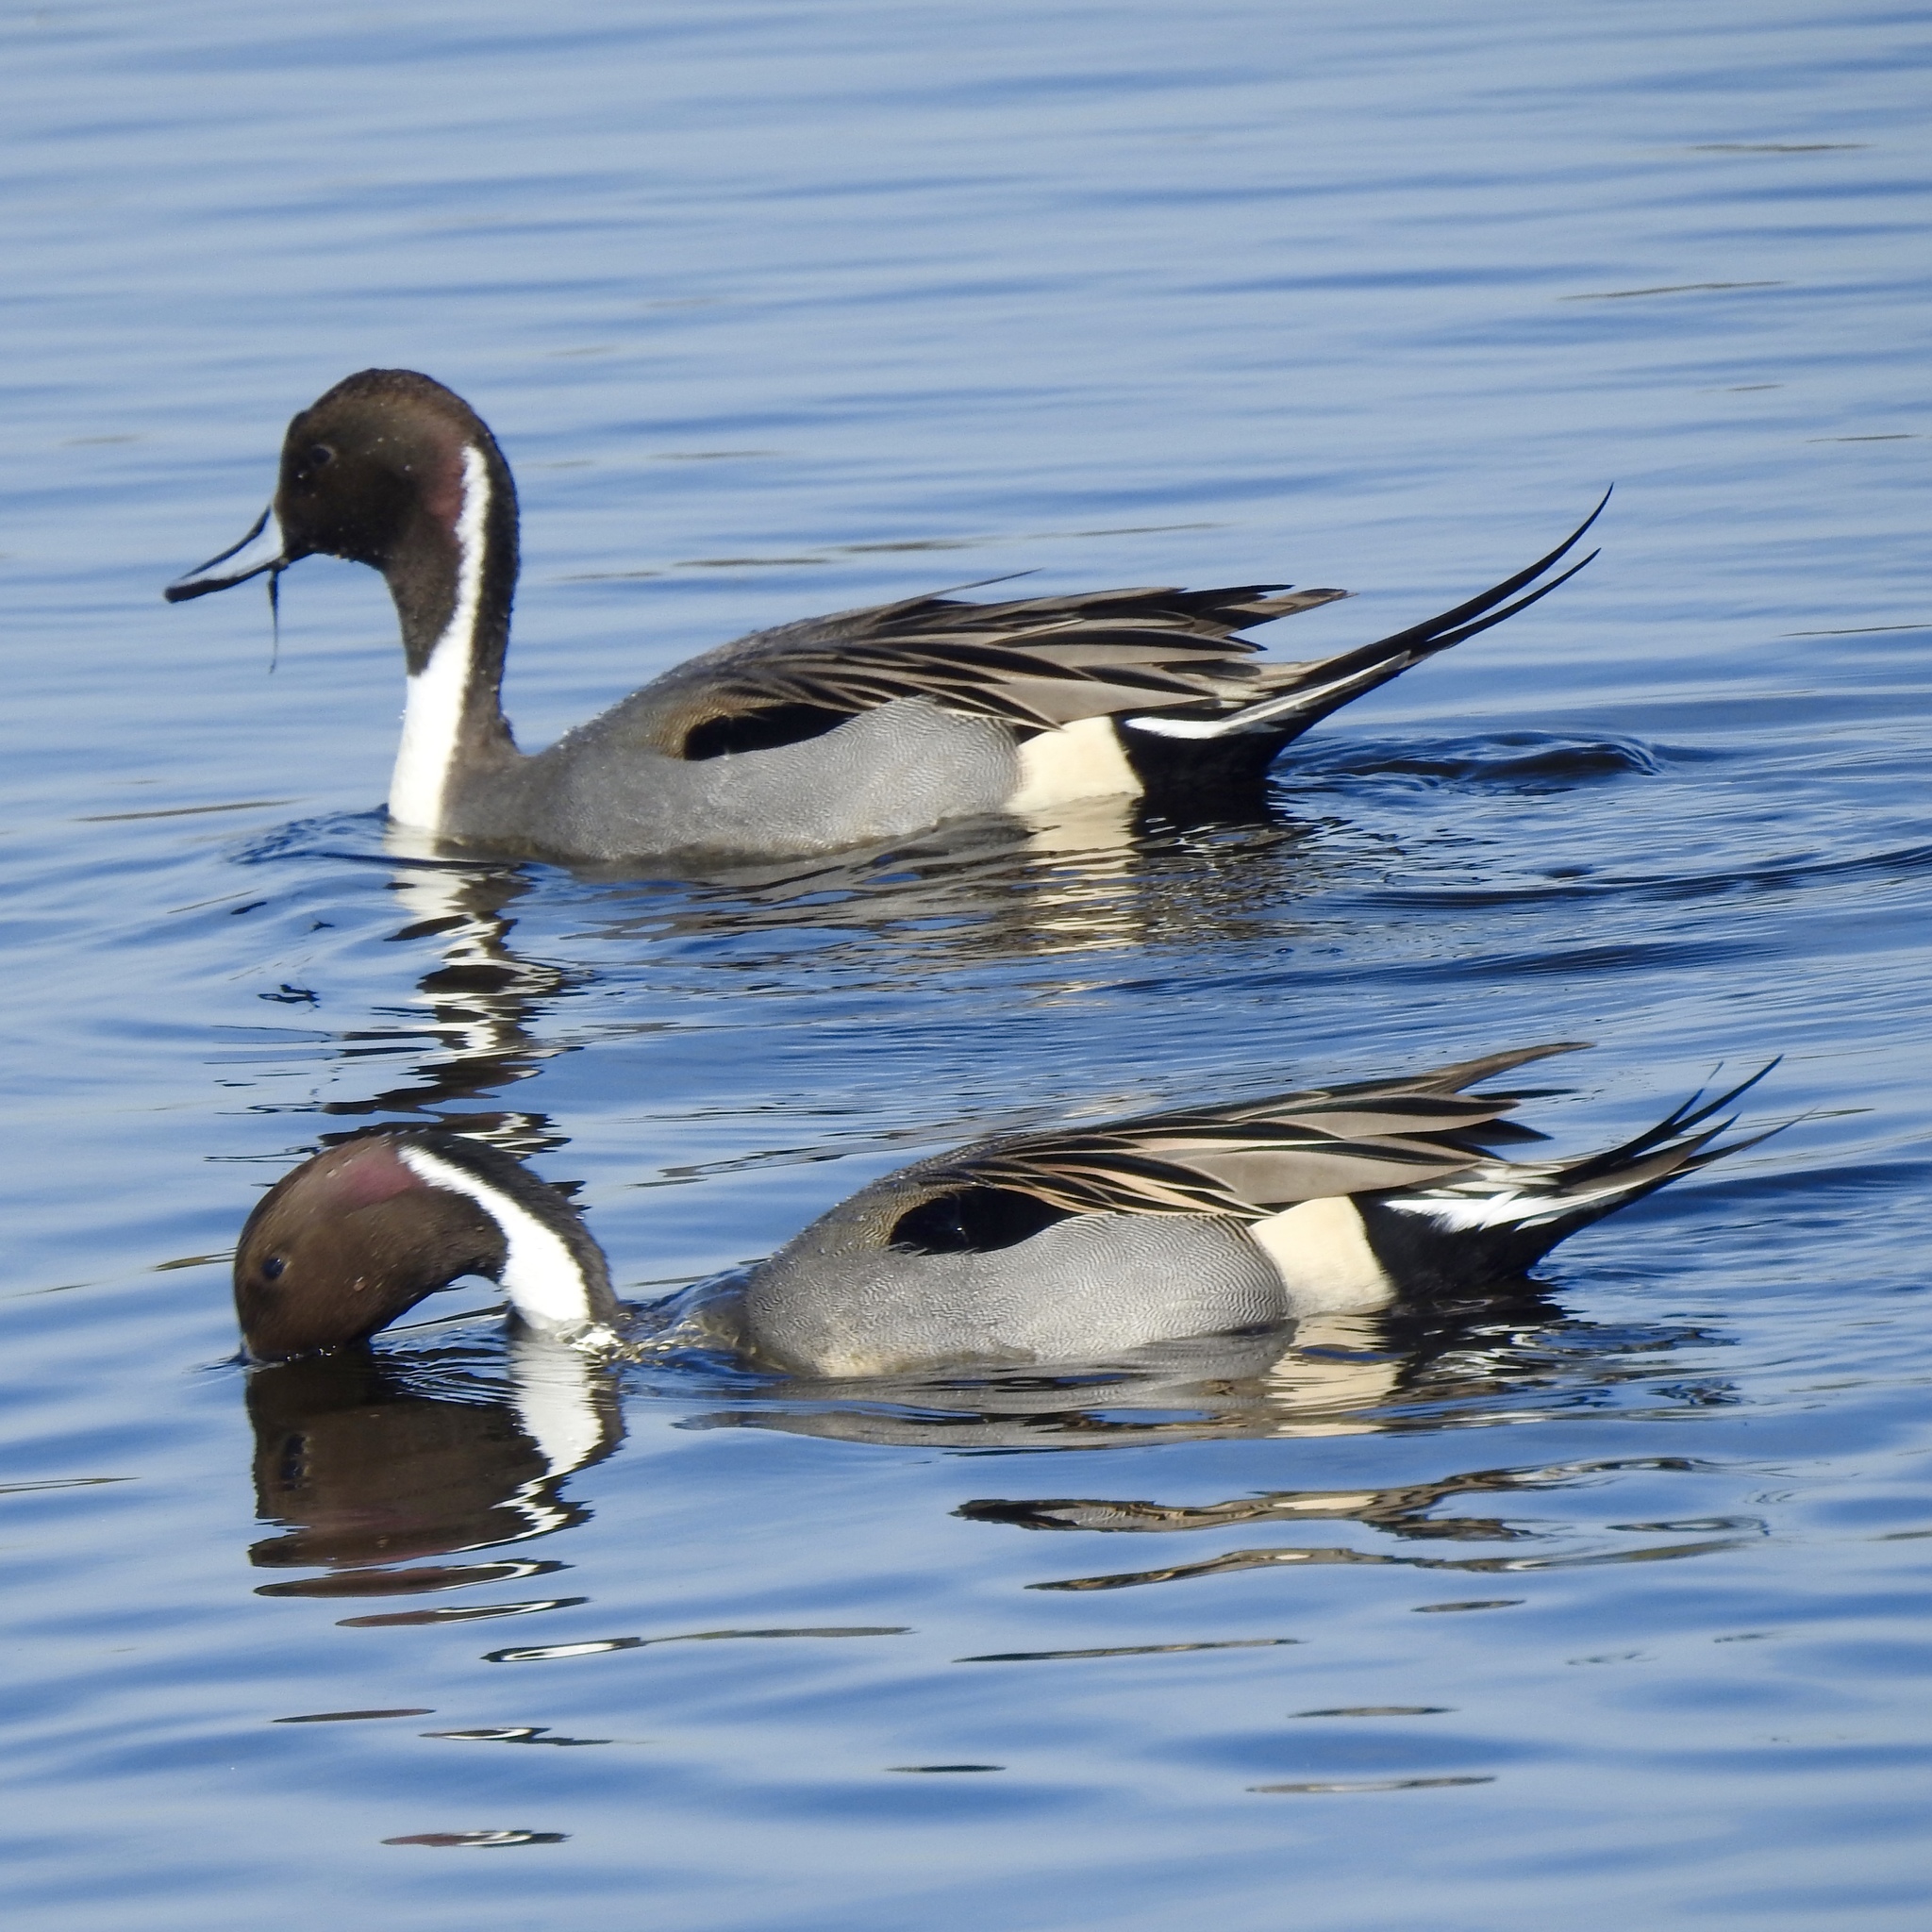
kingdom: Animalia
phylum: Chordata
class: Aves
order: Anseriformes
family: Anatidae
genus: Anas
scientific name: Anas acuta
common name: Northern pintail
